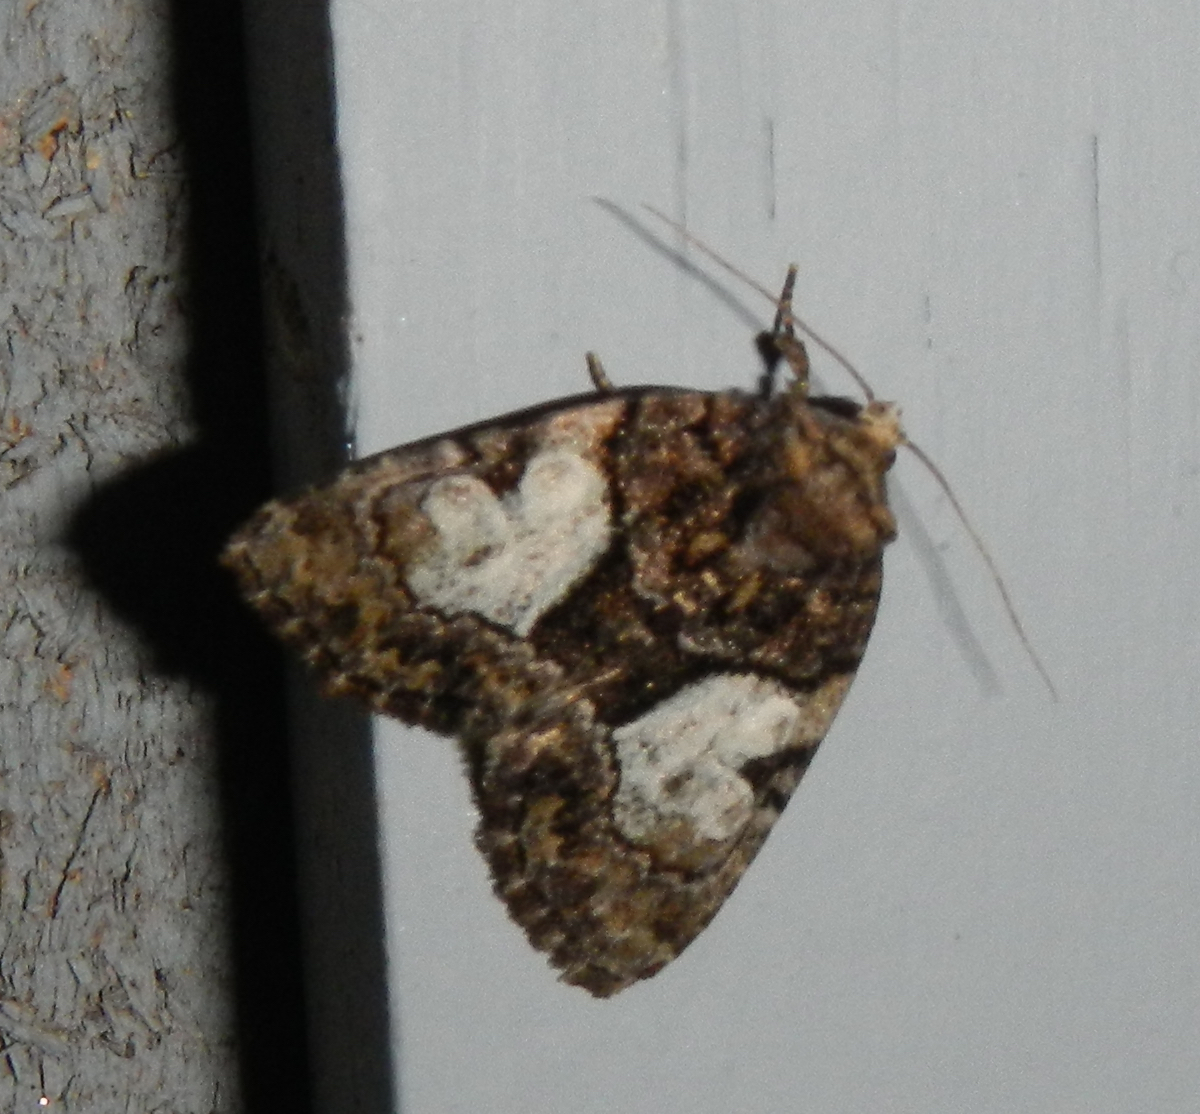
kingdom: Animalia
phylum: Arthropoda
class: Insecta
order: Lepidoptera
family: Noctuidae
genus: Chytonix
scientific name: Chytonix palliatricula
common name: Cloaked marvel
